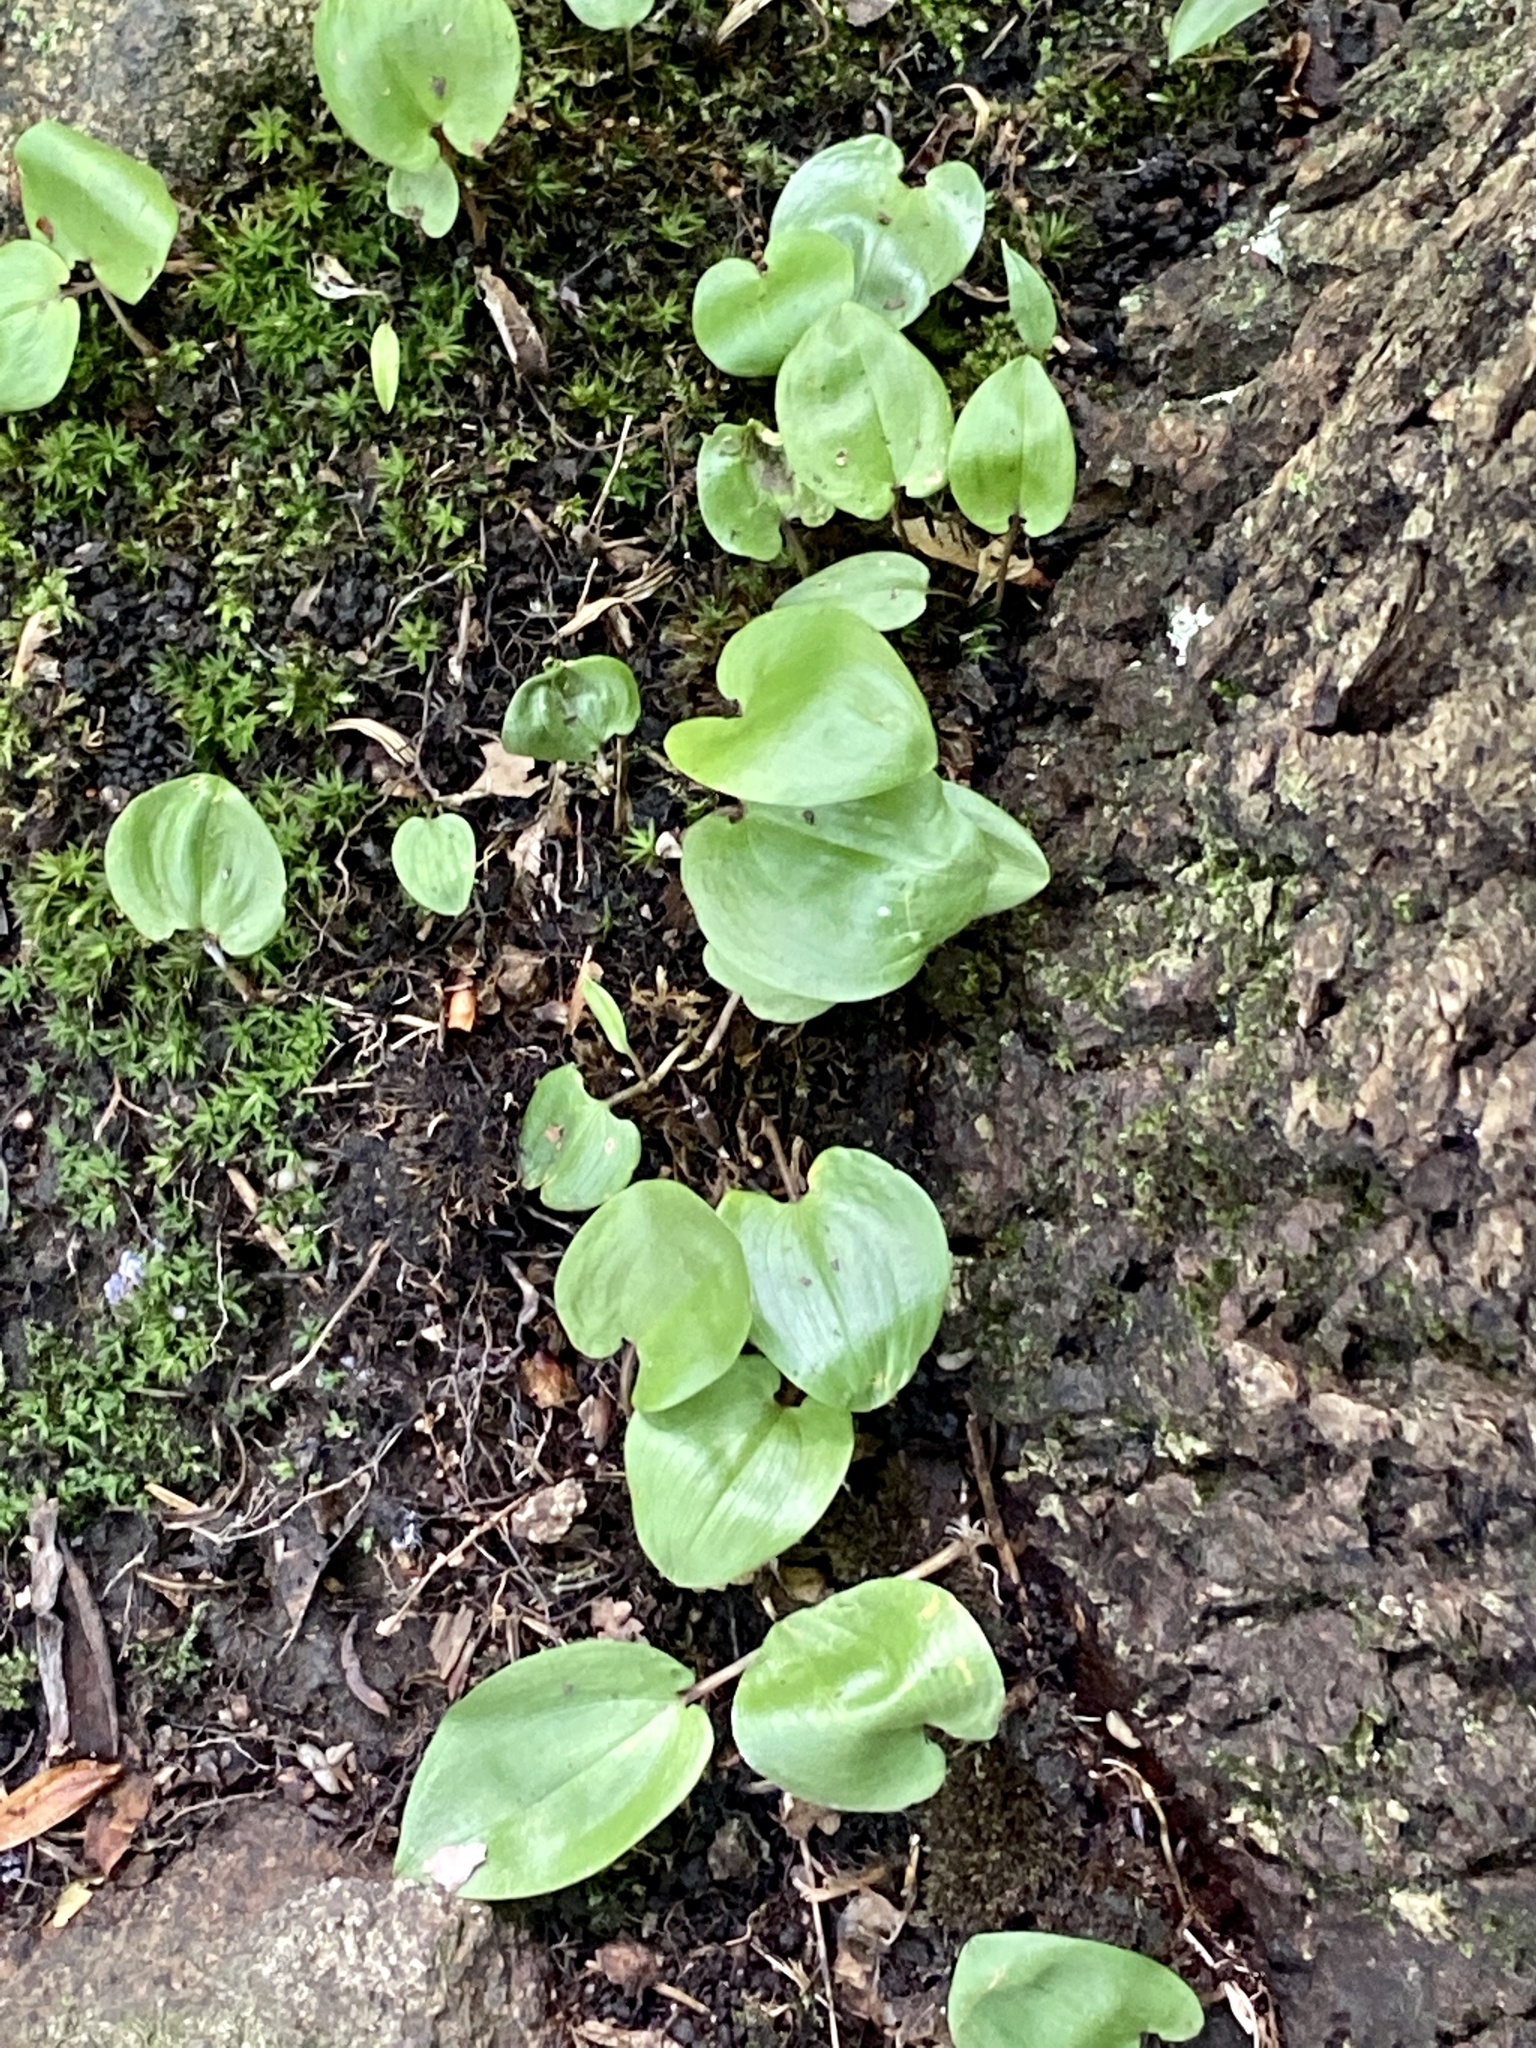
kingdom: Plantae
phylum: Tracheophyta
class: Liliopsida
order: Asparagales
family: Asparagaceae
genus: Maianthemum
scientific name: Maianthemum canadense
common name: False lily-of-the-valley
